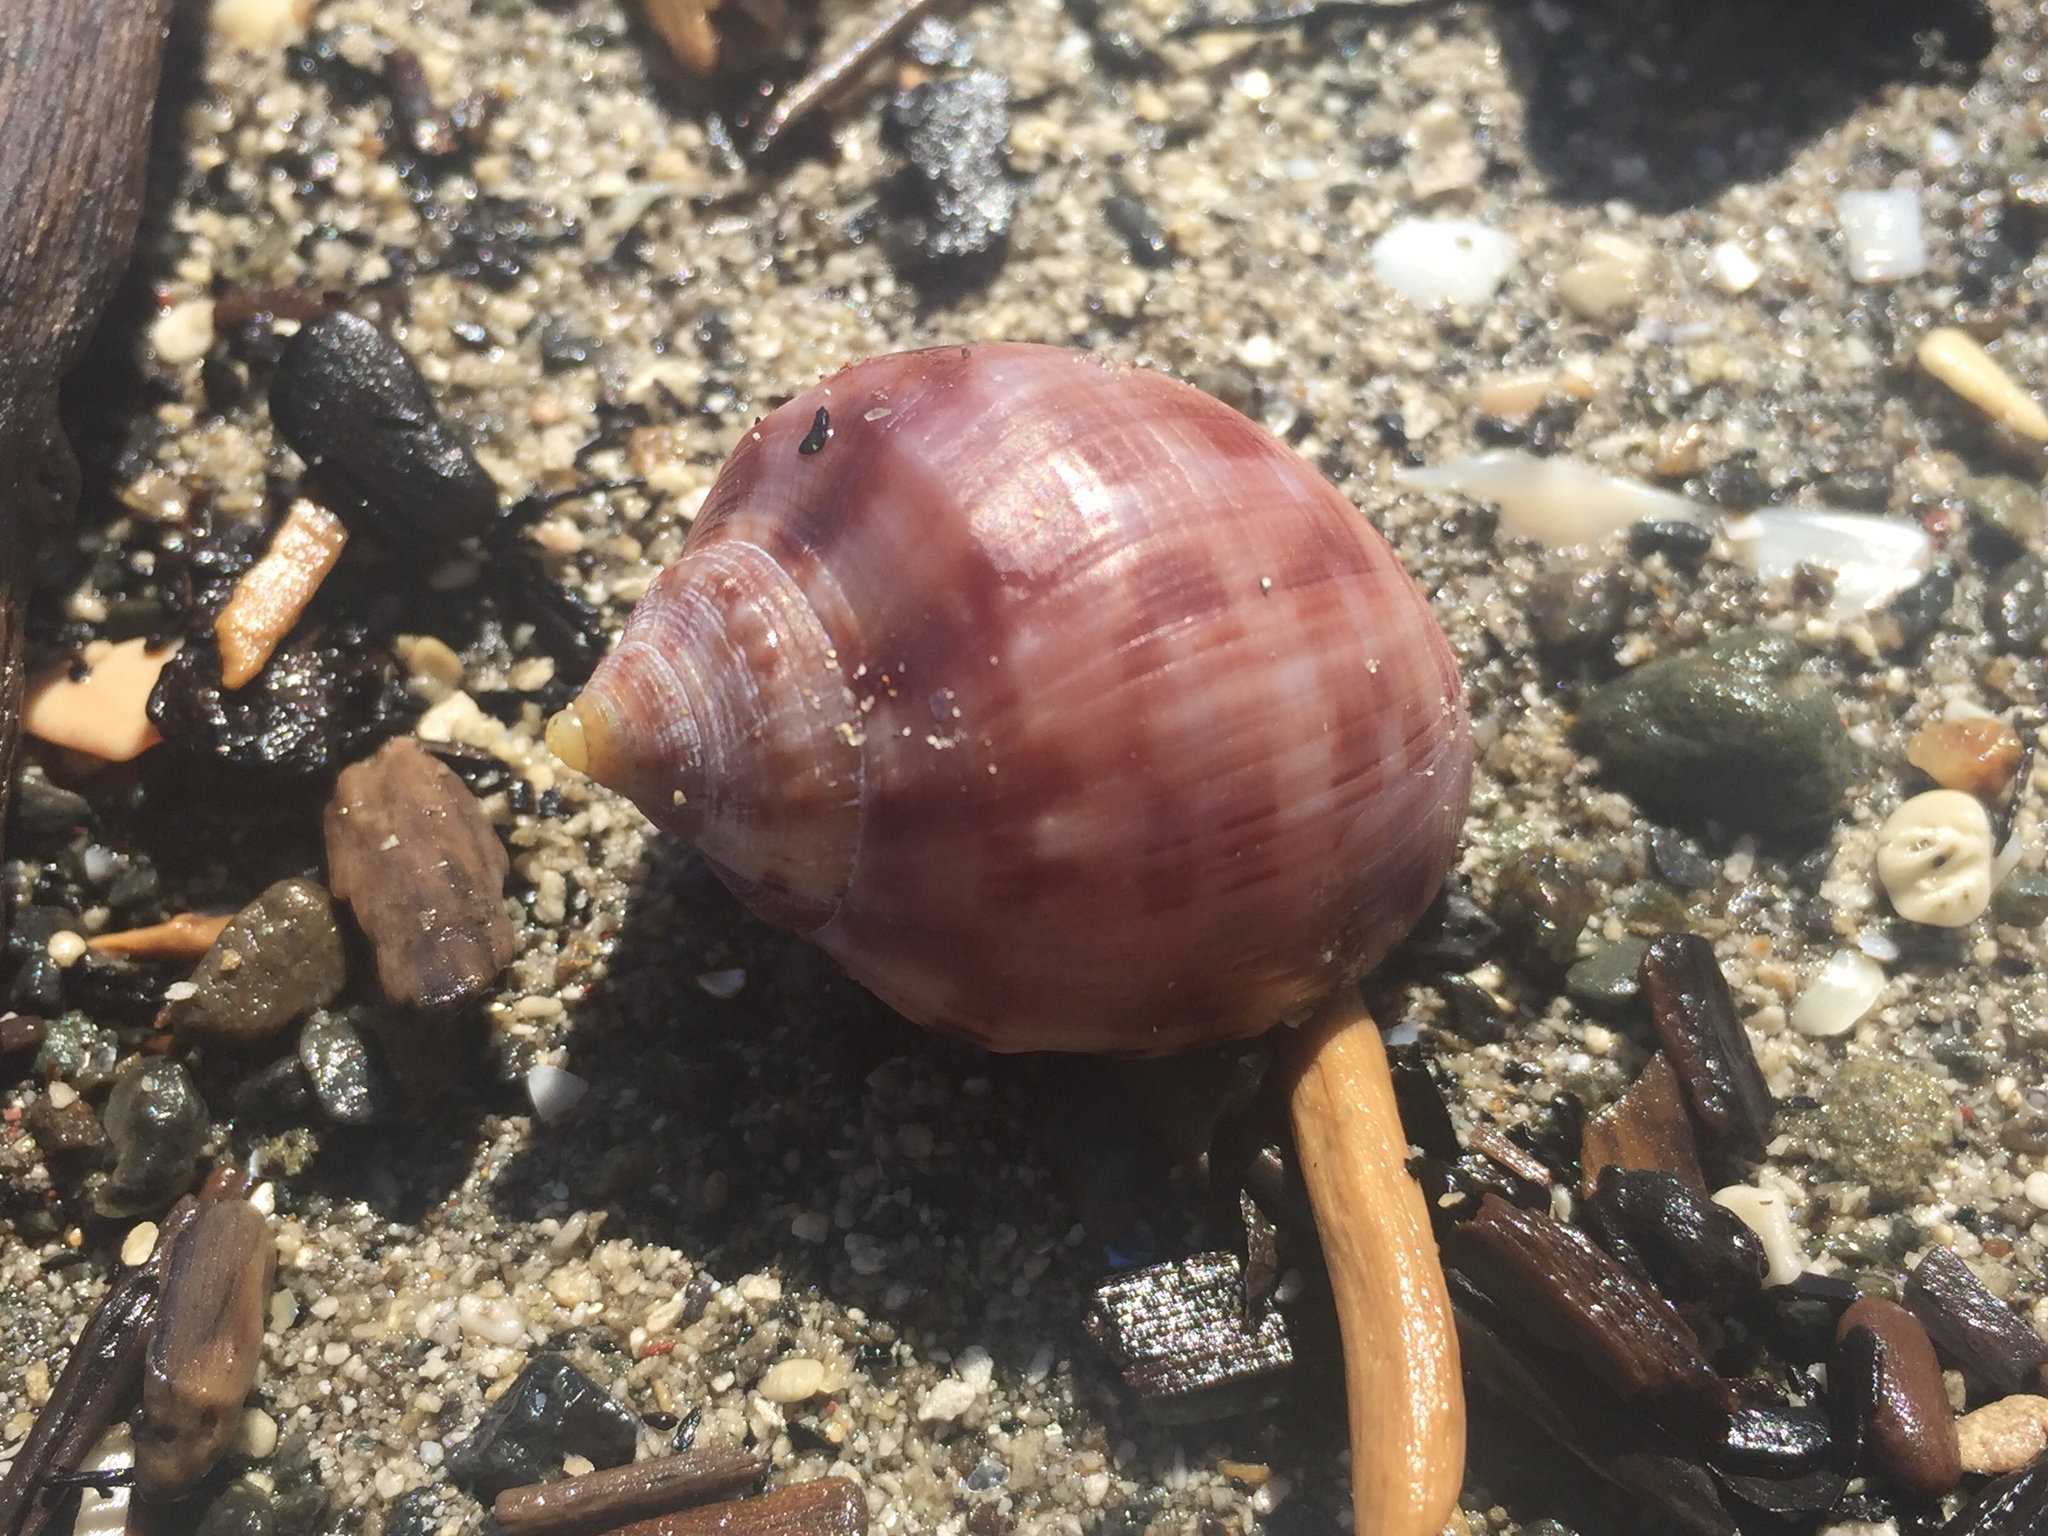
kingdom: Animalia
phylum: Mollusca
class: Gastropoda
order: Littorinimorpha
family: Cassidae
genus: Semicassis
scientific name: Semicassis pyrum
